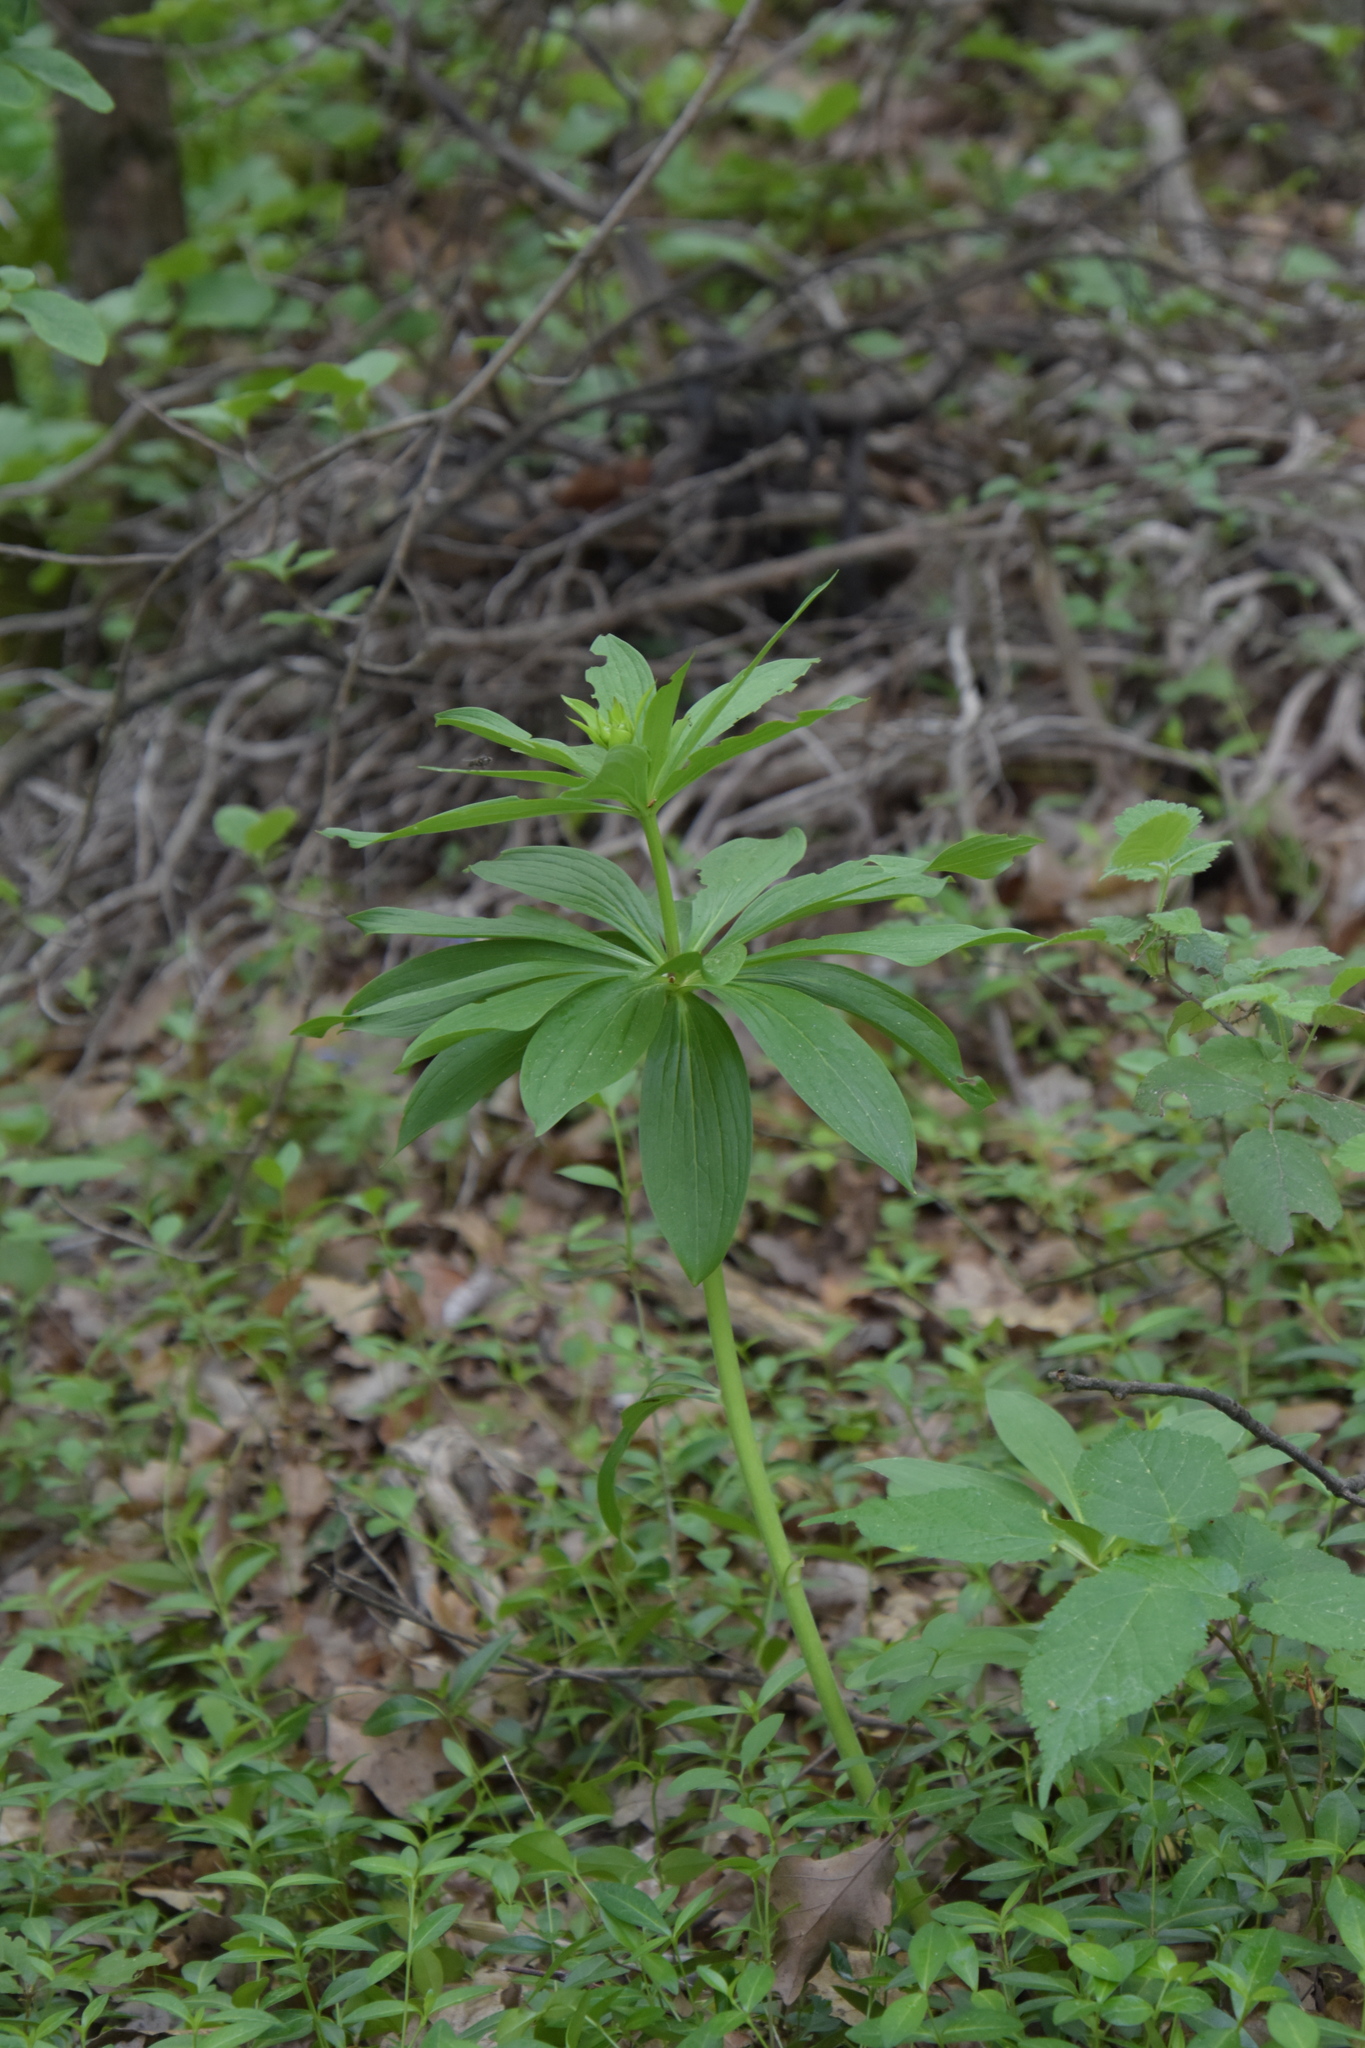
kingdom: Plantae
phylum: Tracheophyta
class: Liliopsida
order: Liliales
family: Liliaceae
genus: Lilium
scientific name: Lilium martagon
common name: Martagon lily
